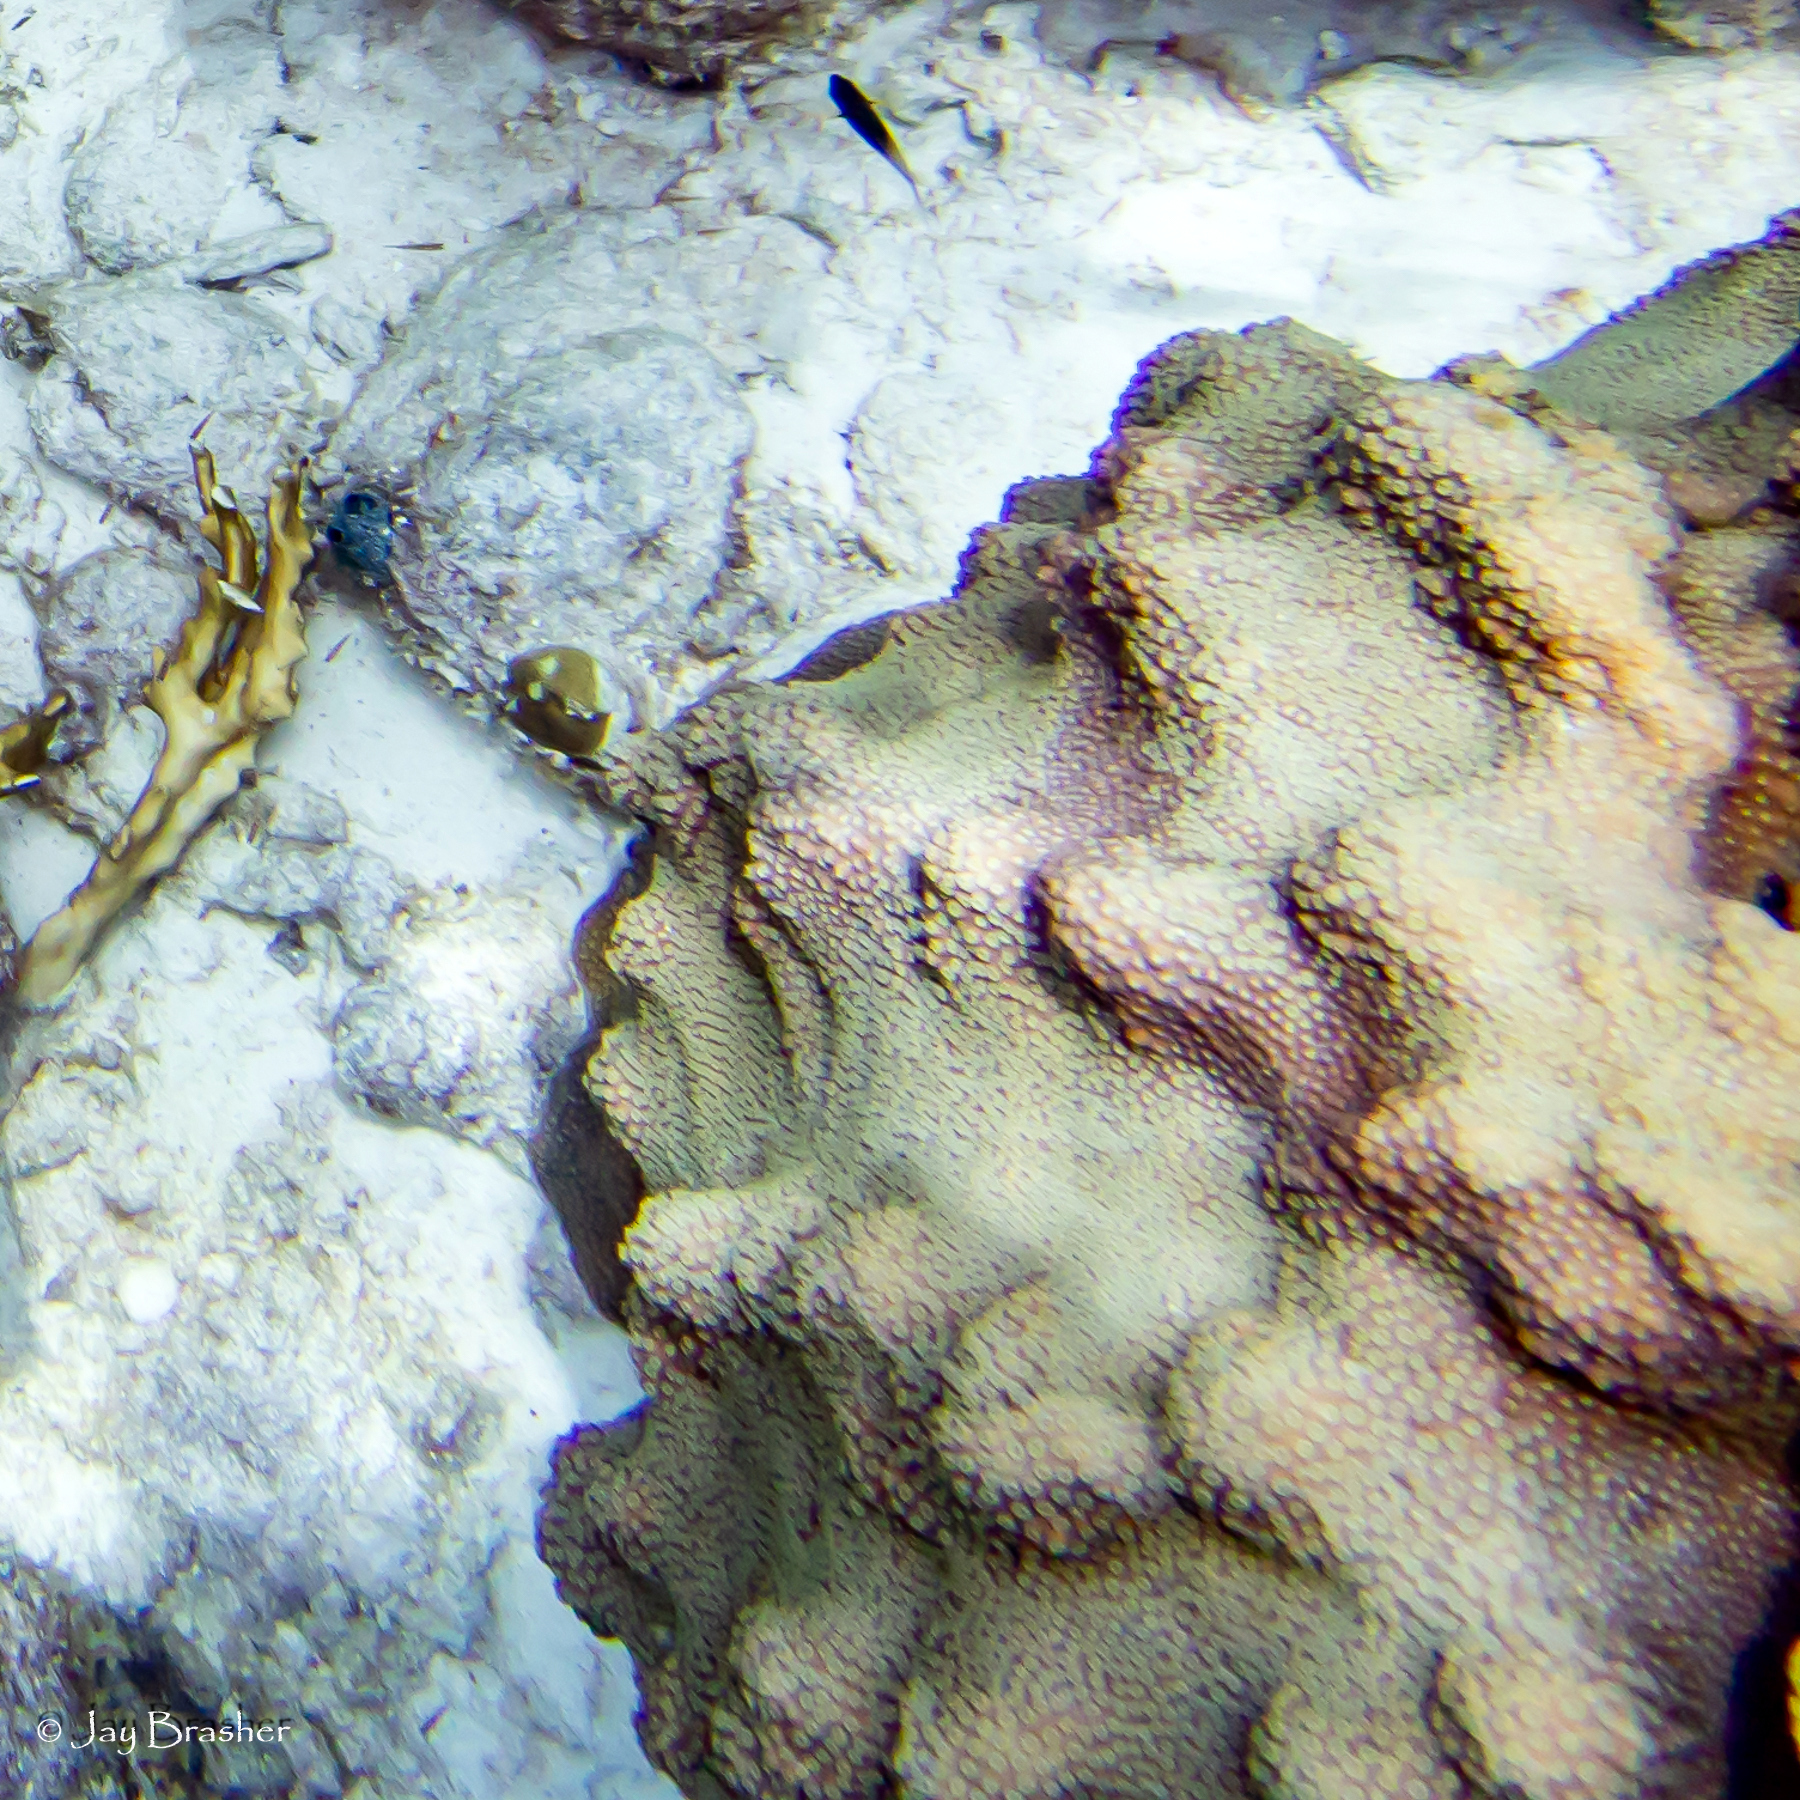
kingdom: Animalia
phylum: Cnidaria
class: Anthozoa
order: Scleractinia
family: Merulinidae
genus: Orbicella
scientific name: Orbicella faveolata
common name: Mountainous star coral
